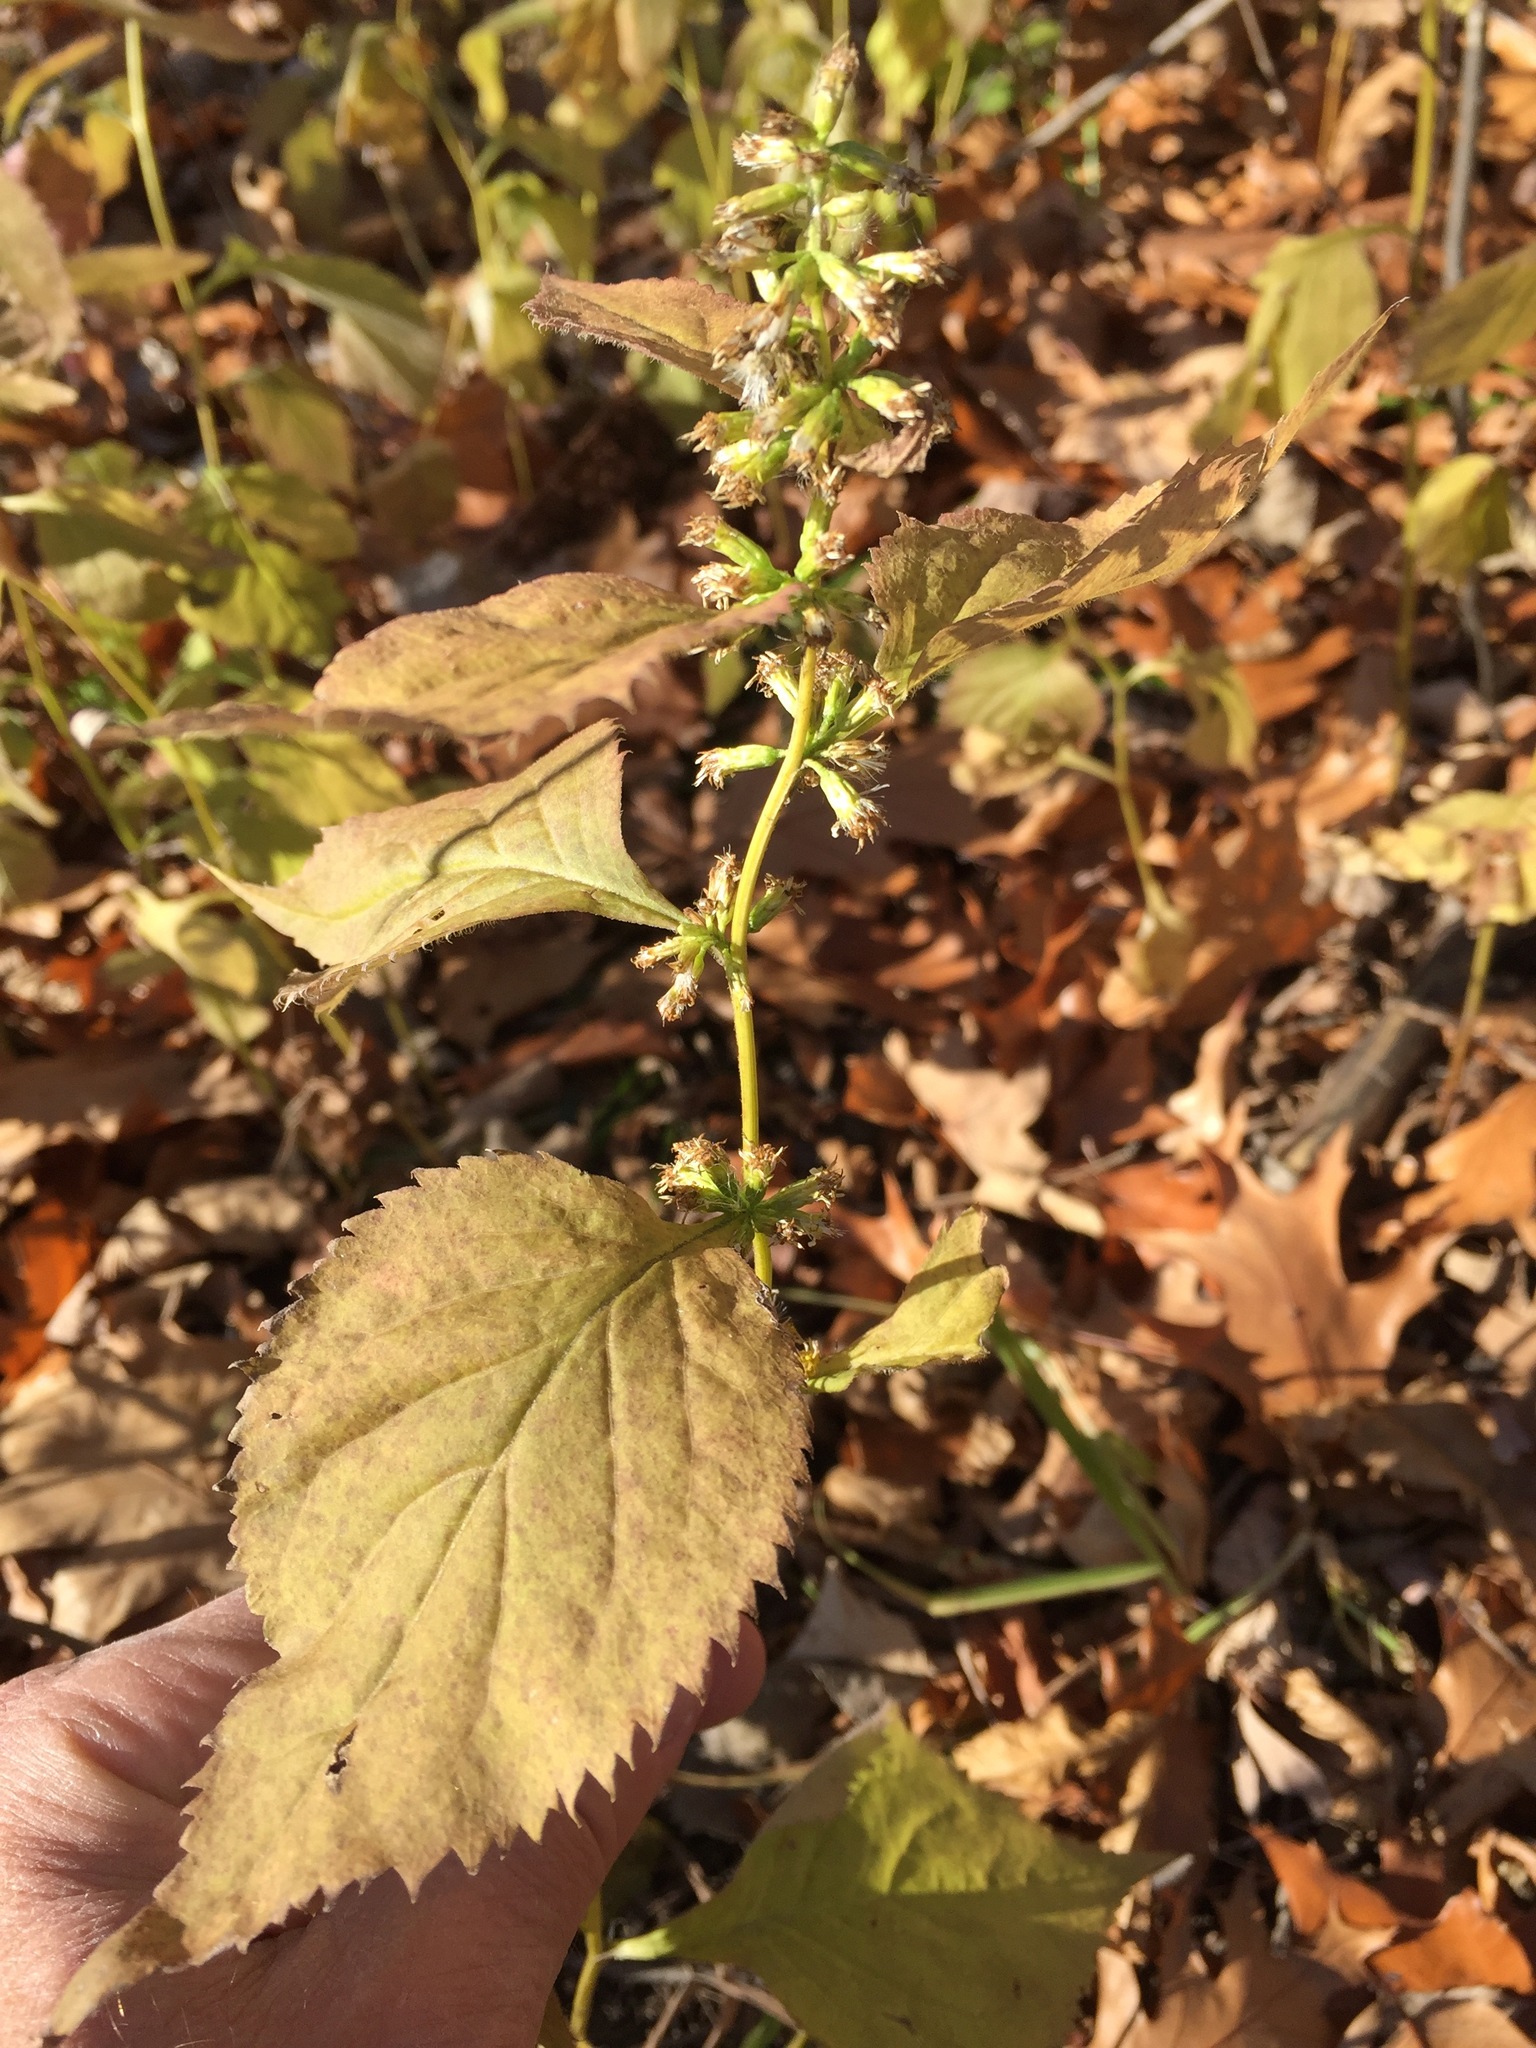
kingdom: Plantae
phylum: Tracheophyta
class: Magnoliopsida
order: Asterales
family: Asteraceae
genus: Solidago
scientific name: Solidago flexicaulis
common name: Zig-zag goldenrod
